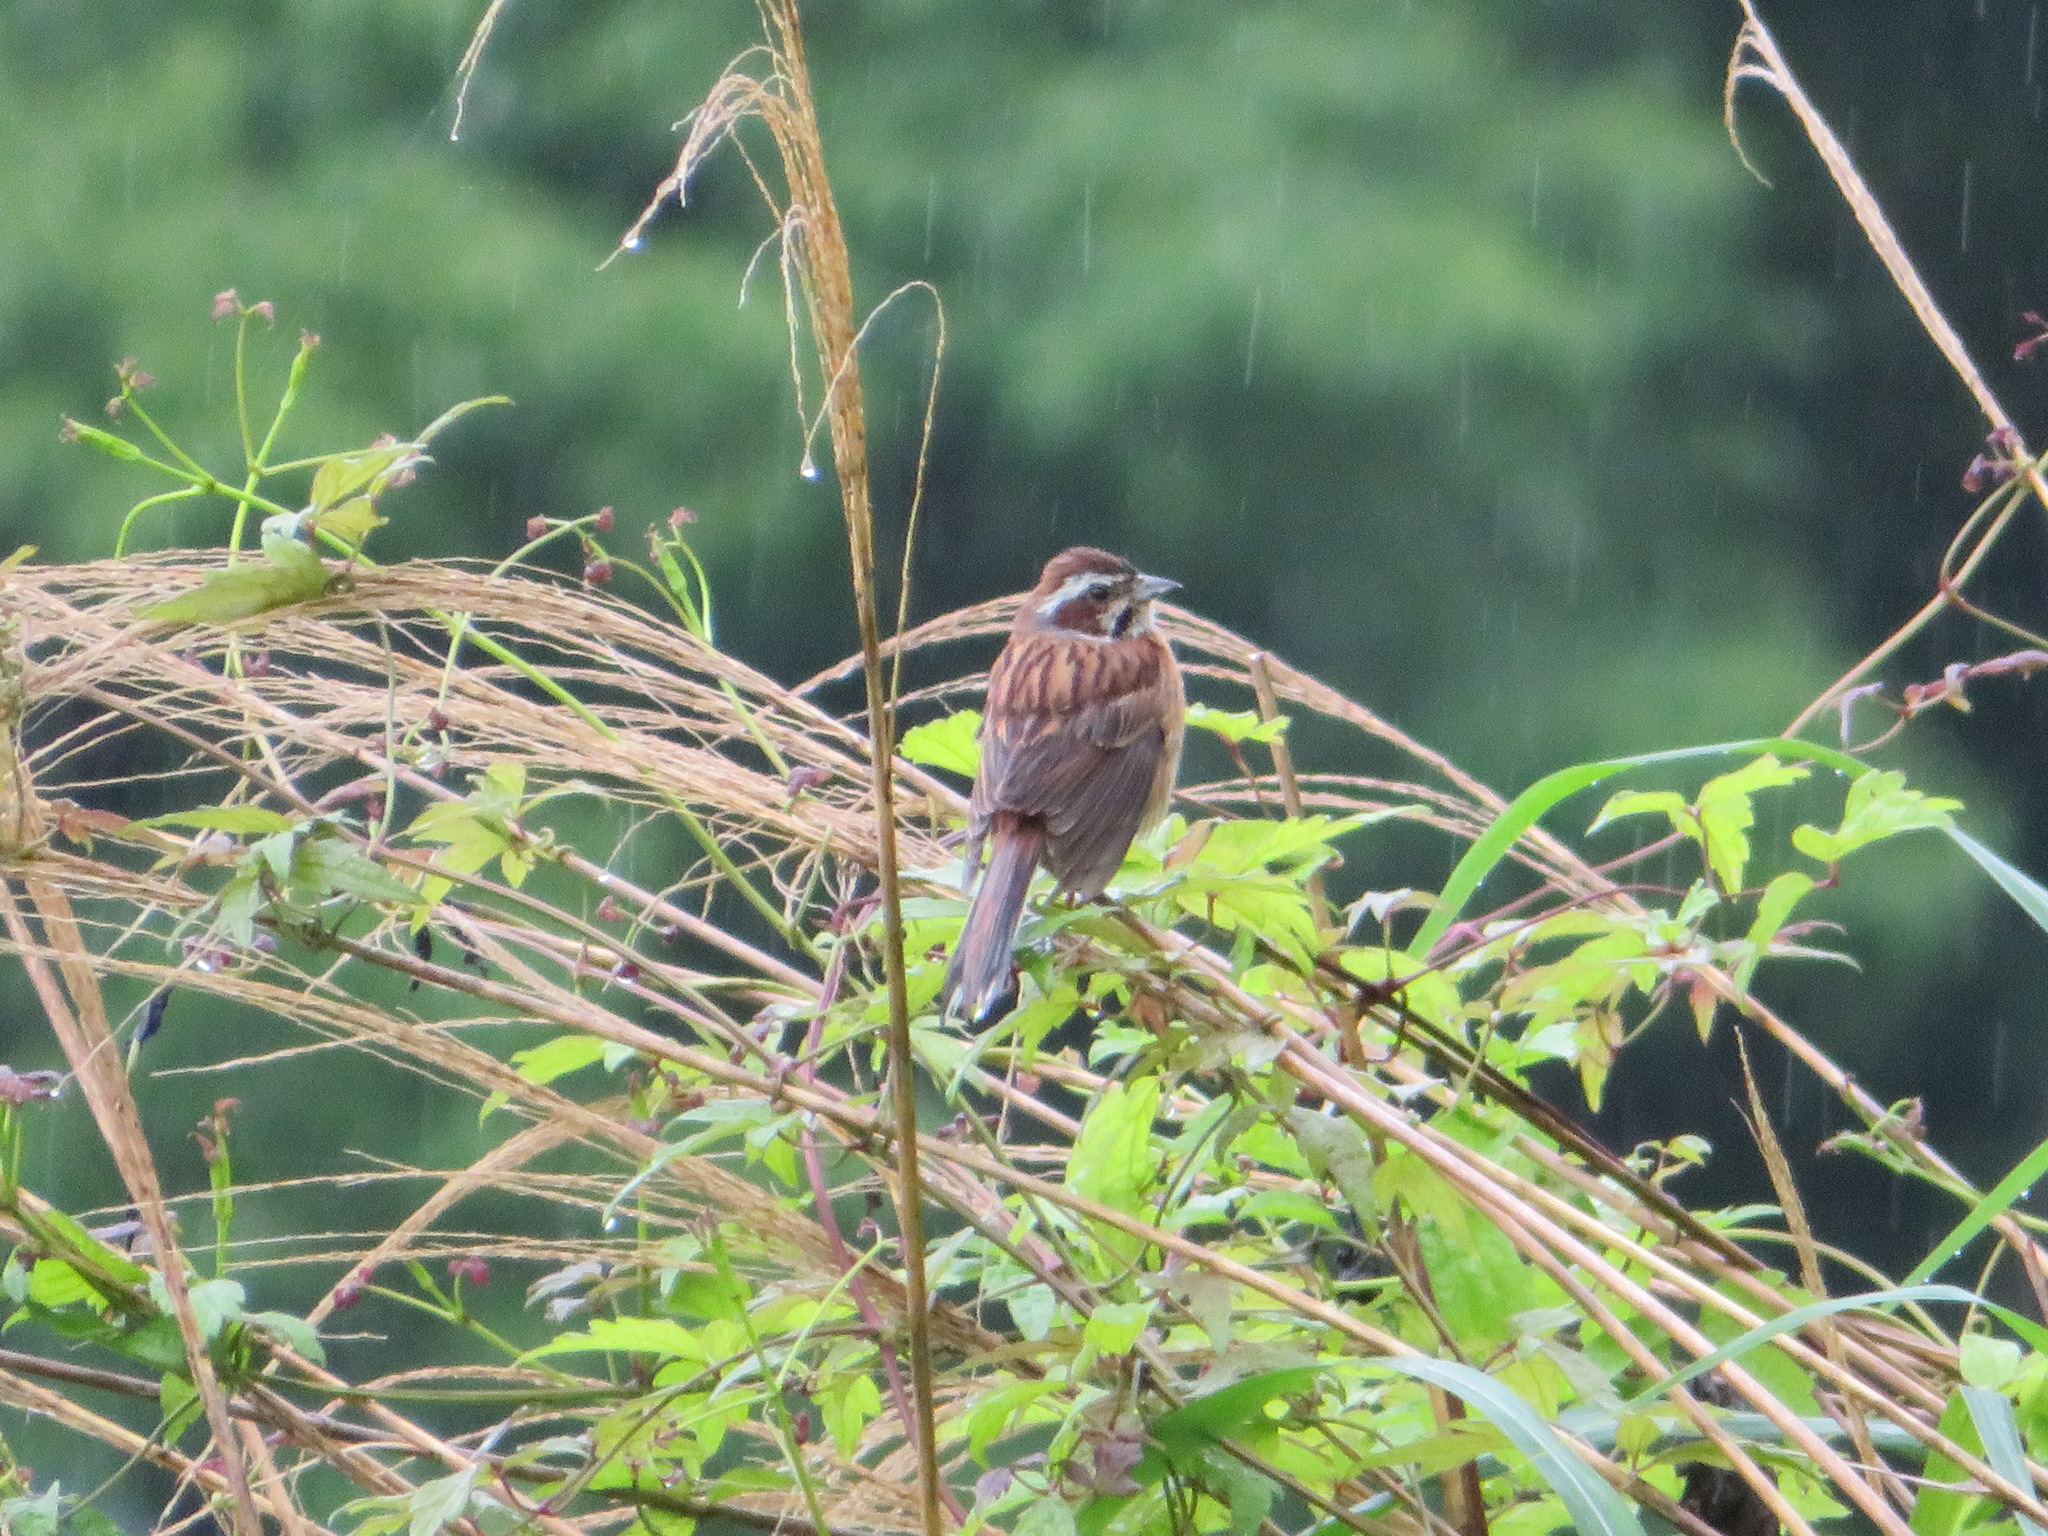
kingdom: Animalia
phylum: Chordata
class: Aves
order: Passeriformes
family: Emberizidae
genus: Emberiza
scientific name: Emberiza cioides
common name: Meadow bunting
